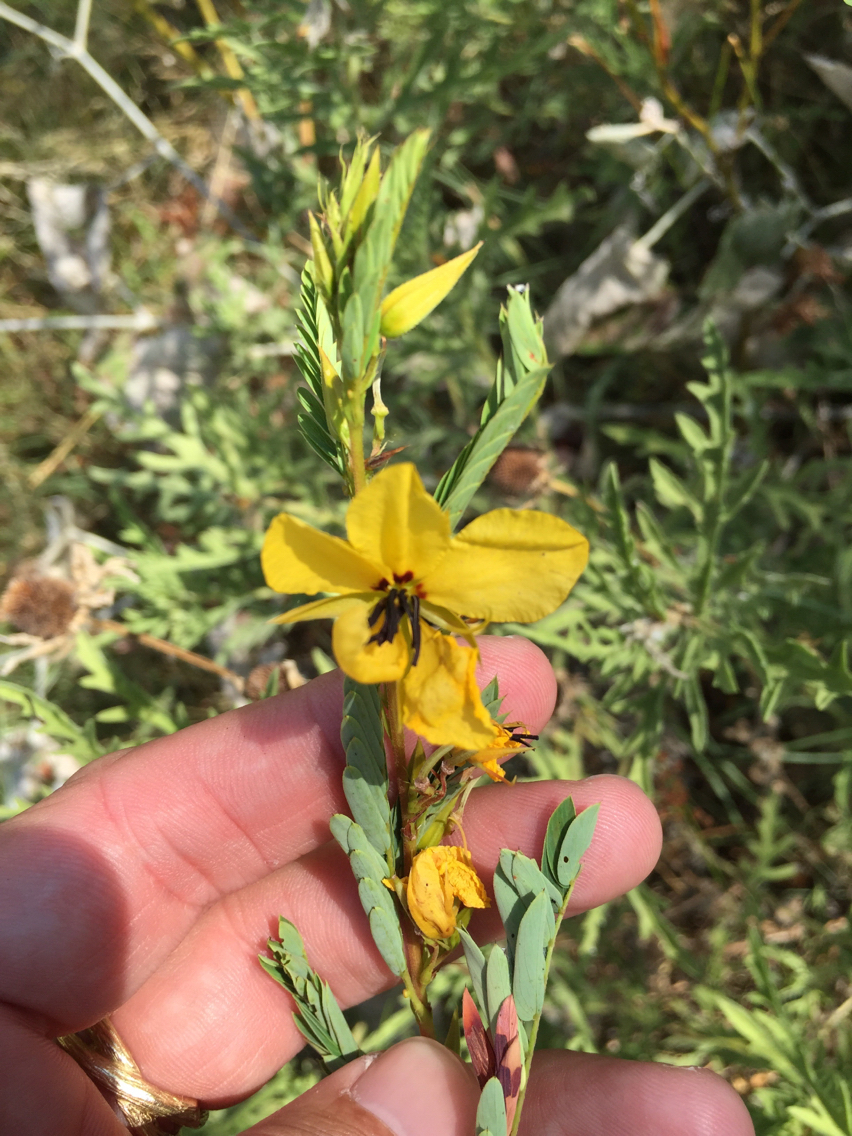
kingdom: Plantae
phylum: Tracheophyta
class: Magnoliopsida
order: Fabales
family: Fabaceae
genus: Chamaecrista
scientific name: Chamaecrista fasciculata
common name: Golden cassia
